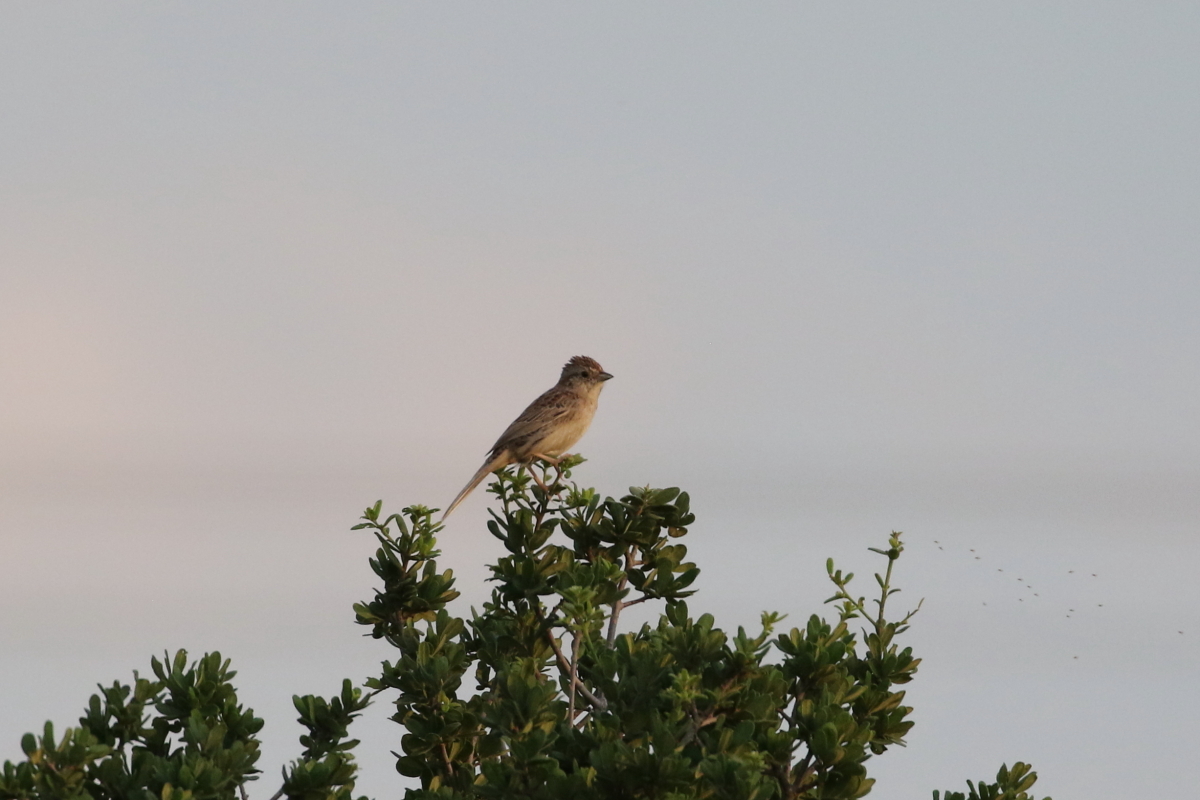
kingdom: Animalia
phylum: Chordata
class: Aves
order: Passeriformes
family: Passerellidae
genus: Peucaea
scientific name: Peucaea cassinii
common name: Cassin's sparrow
